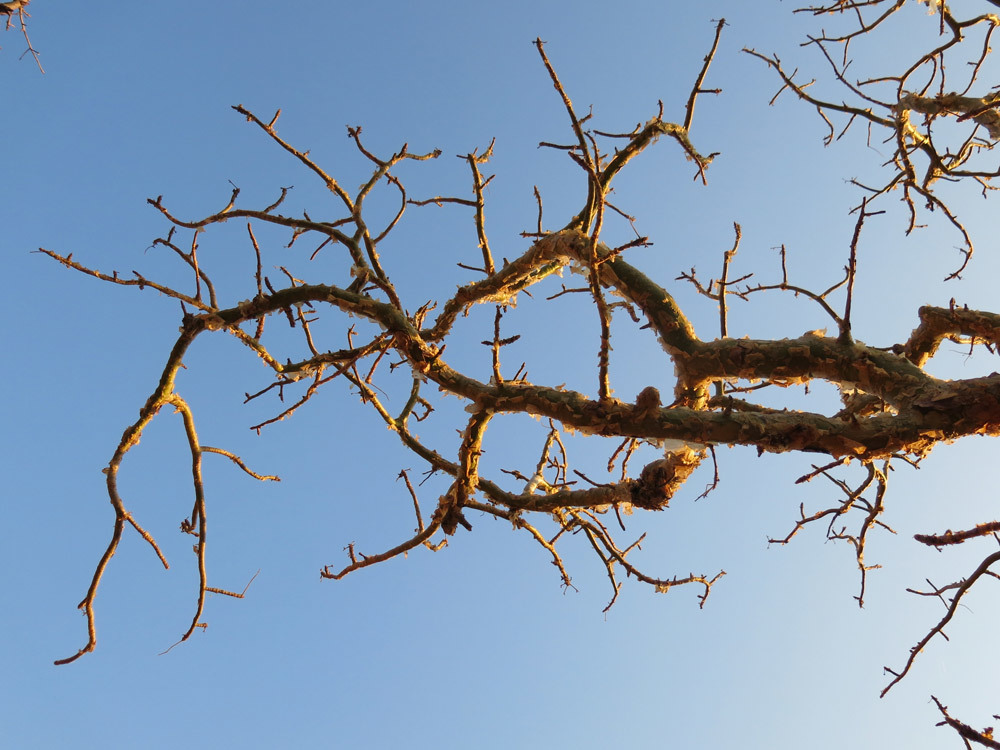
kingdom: Plantae
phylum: Tracheophyta
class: Magnoliopsida
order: Sapindales
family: Burseraceae
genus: Commiphora
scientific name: Commiphora marlothii
